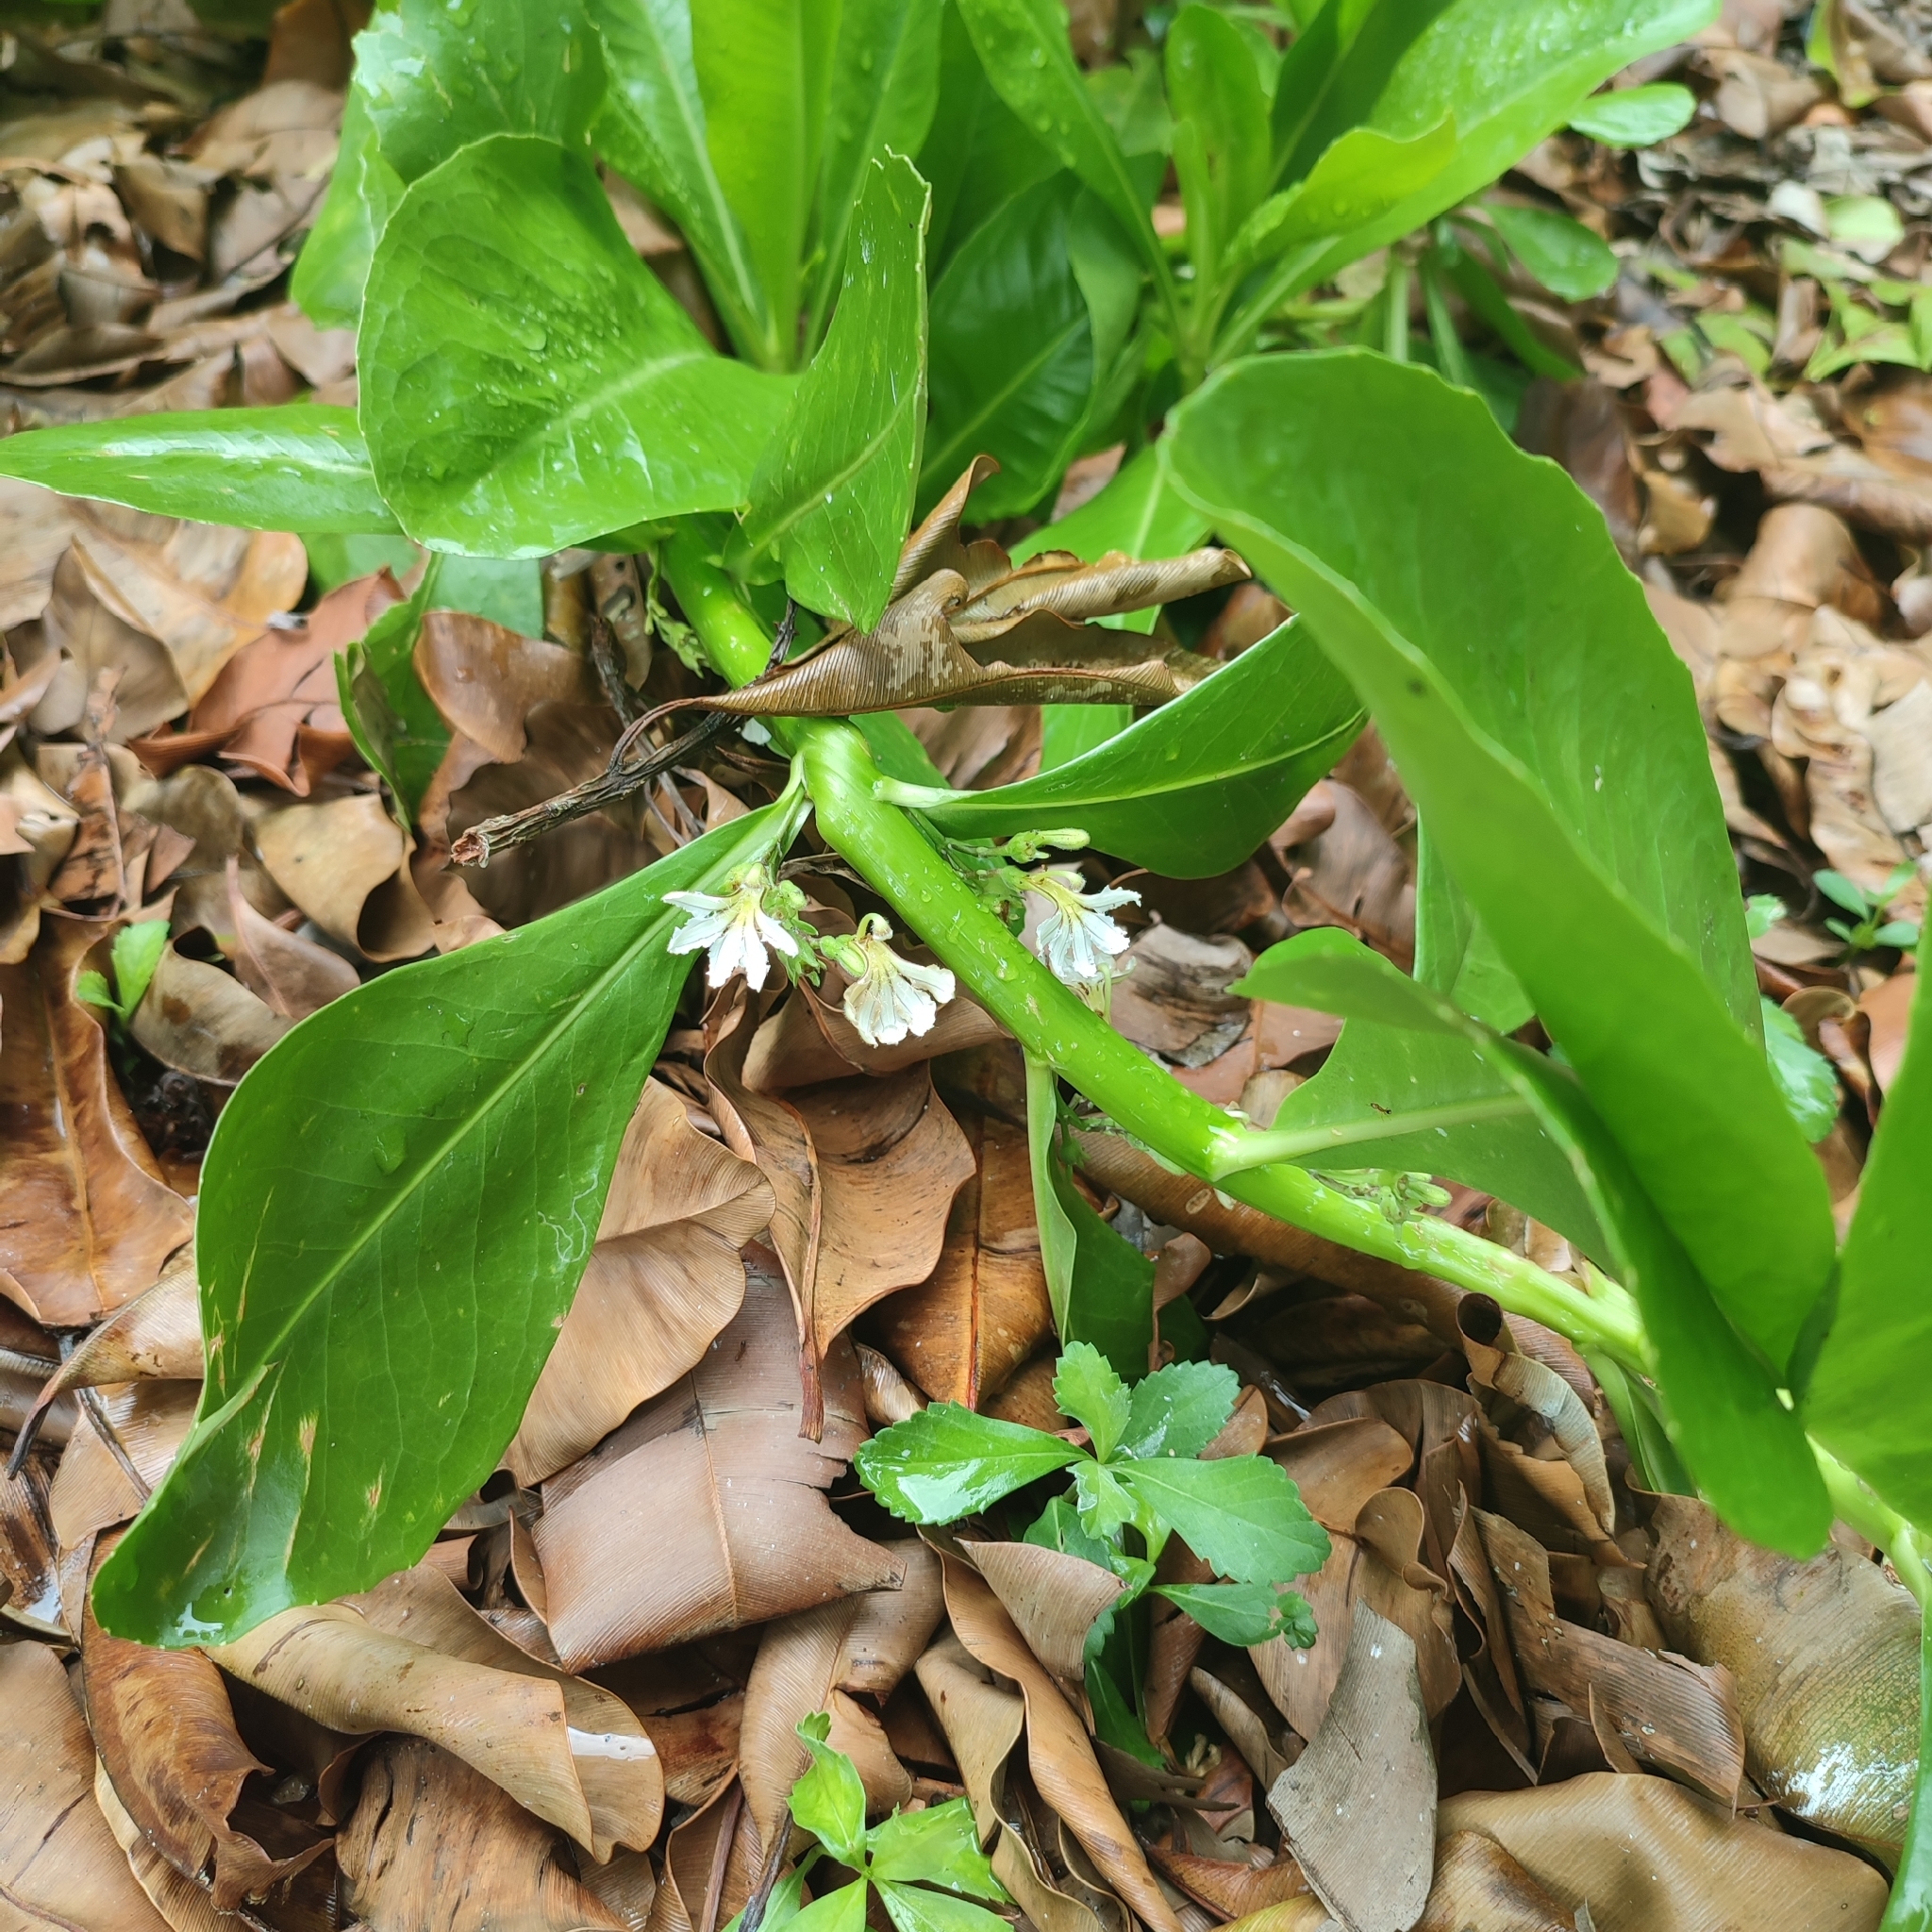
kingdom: Plantae
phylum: Tracheophyta
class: Magnoliopsida
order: Asterales
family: Goodeniaceae
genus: Scaevola
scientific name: Scaevola taccada
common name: Sea lettucetree
